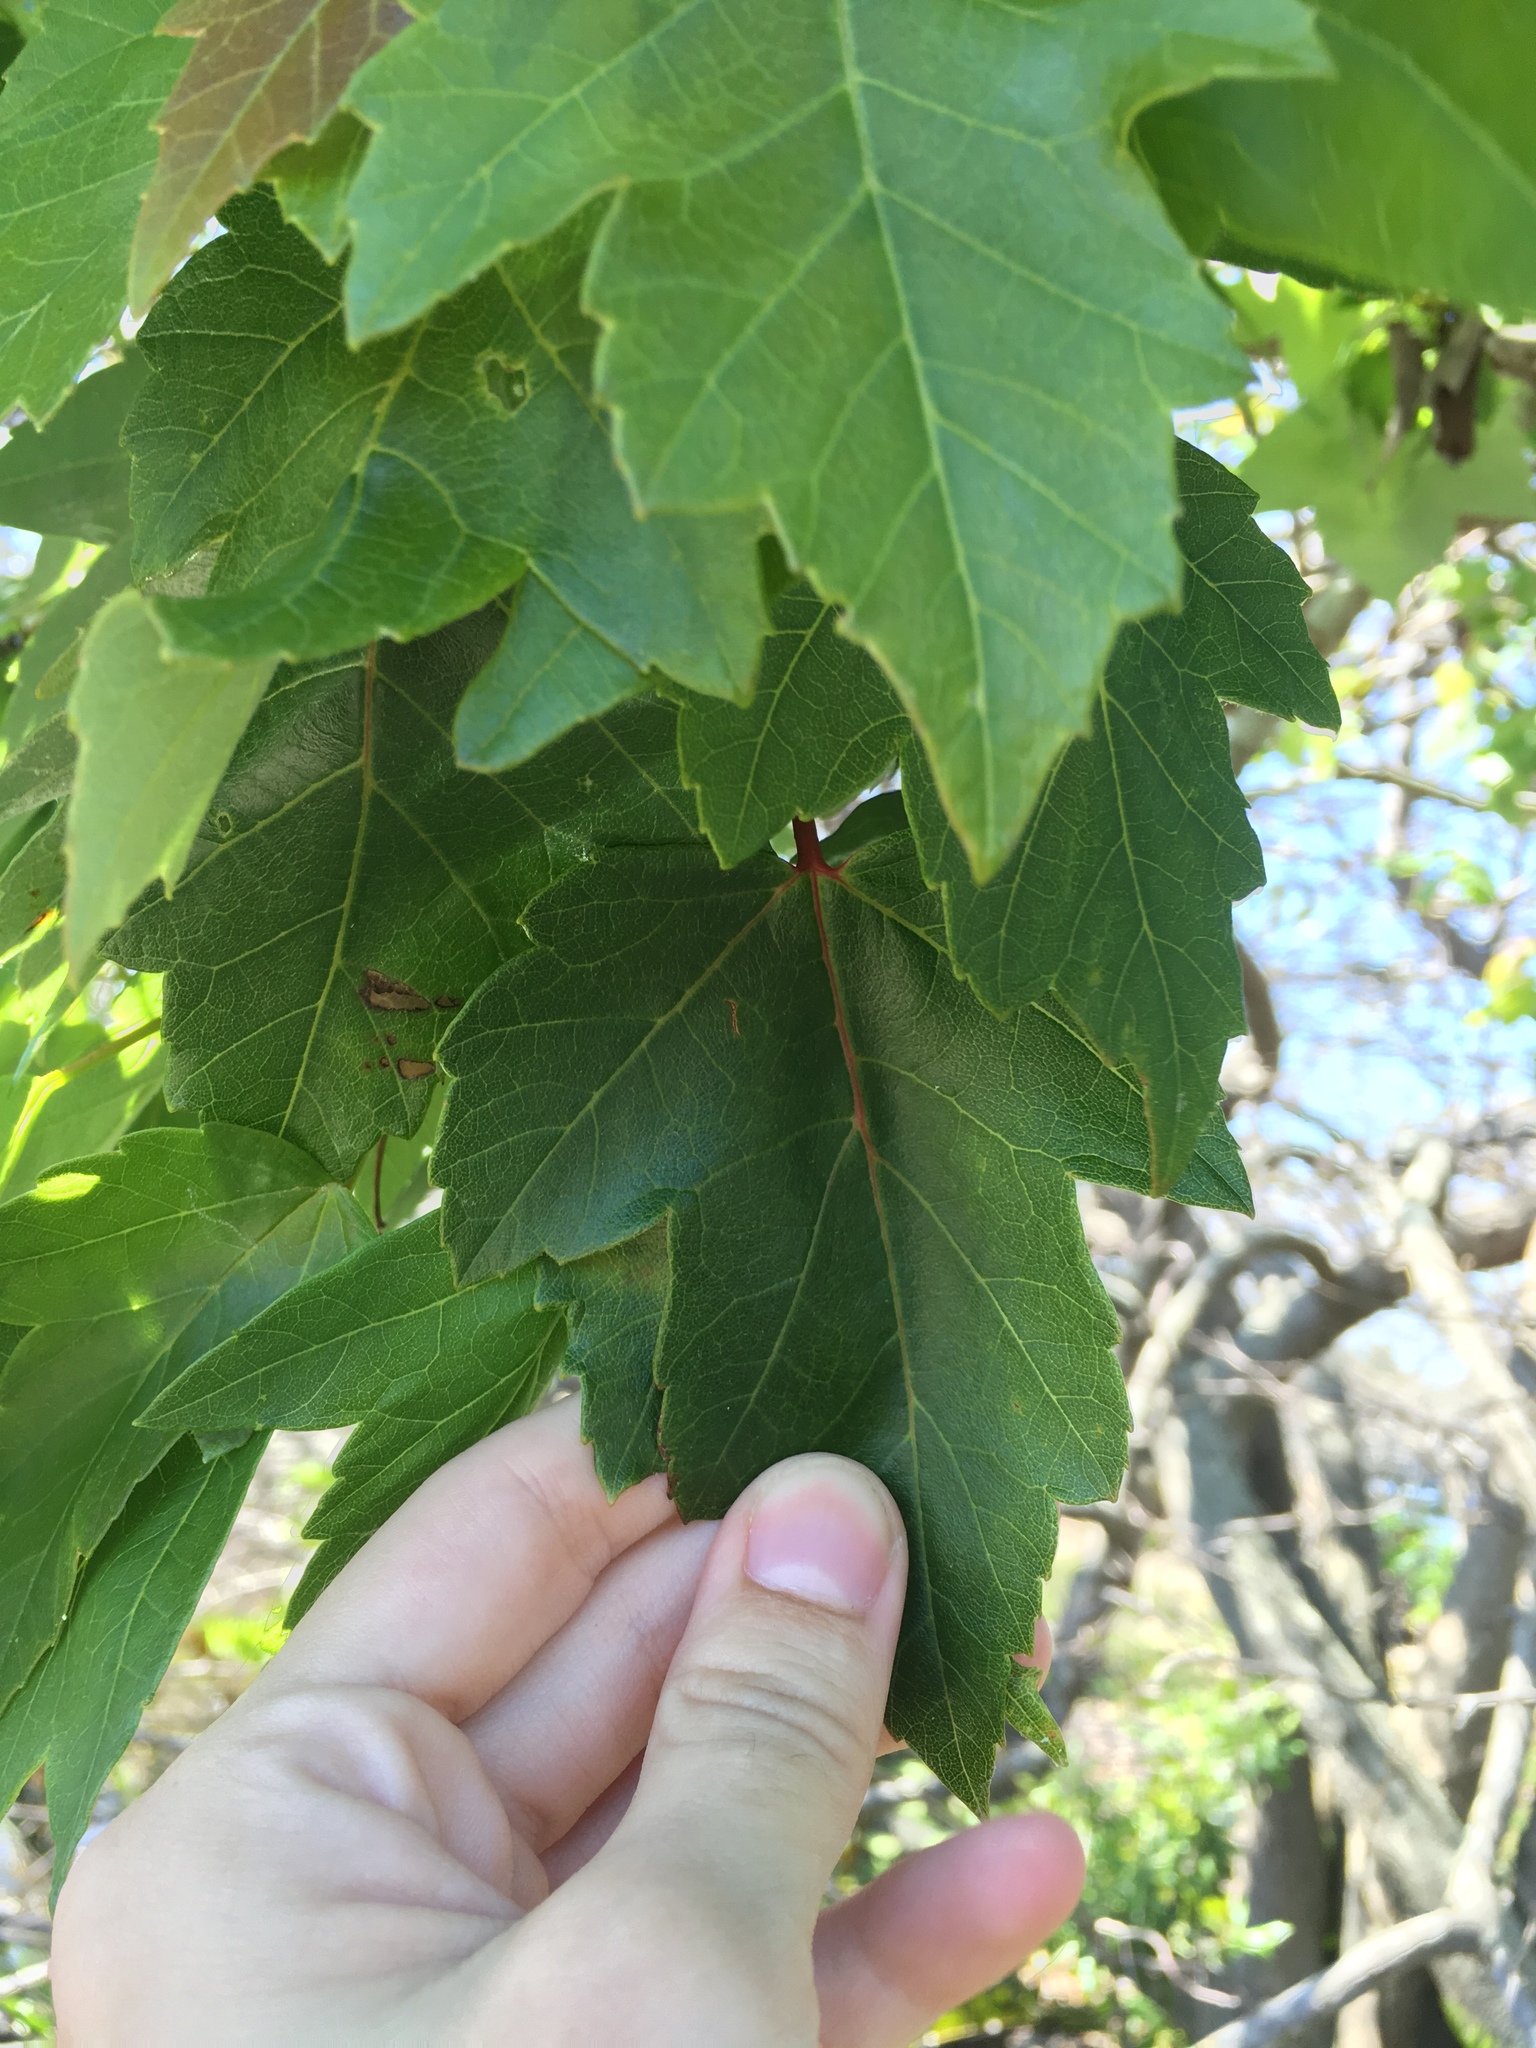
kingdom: Plantae
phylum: Tracheophyta
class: Magnoliopsida
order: Sapindales
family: Sapindaceae
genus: Acer
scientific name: Acer rubrum
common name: Red maple
